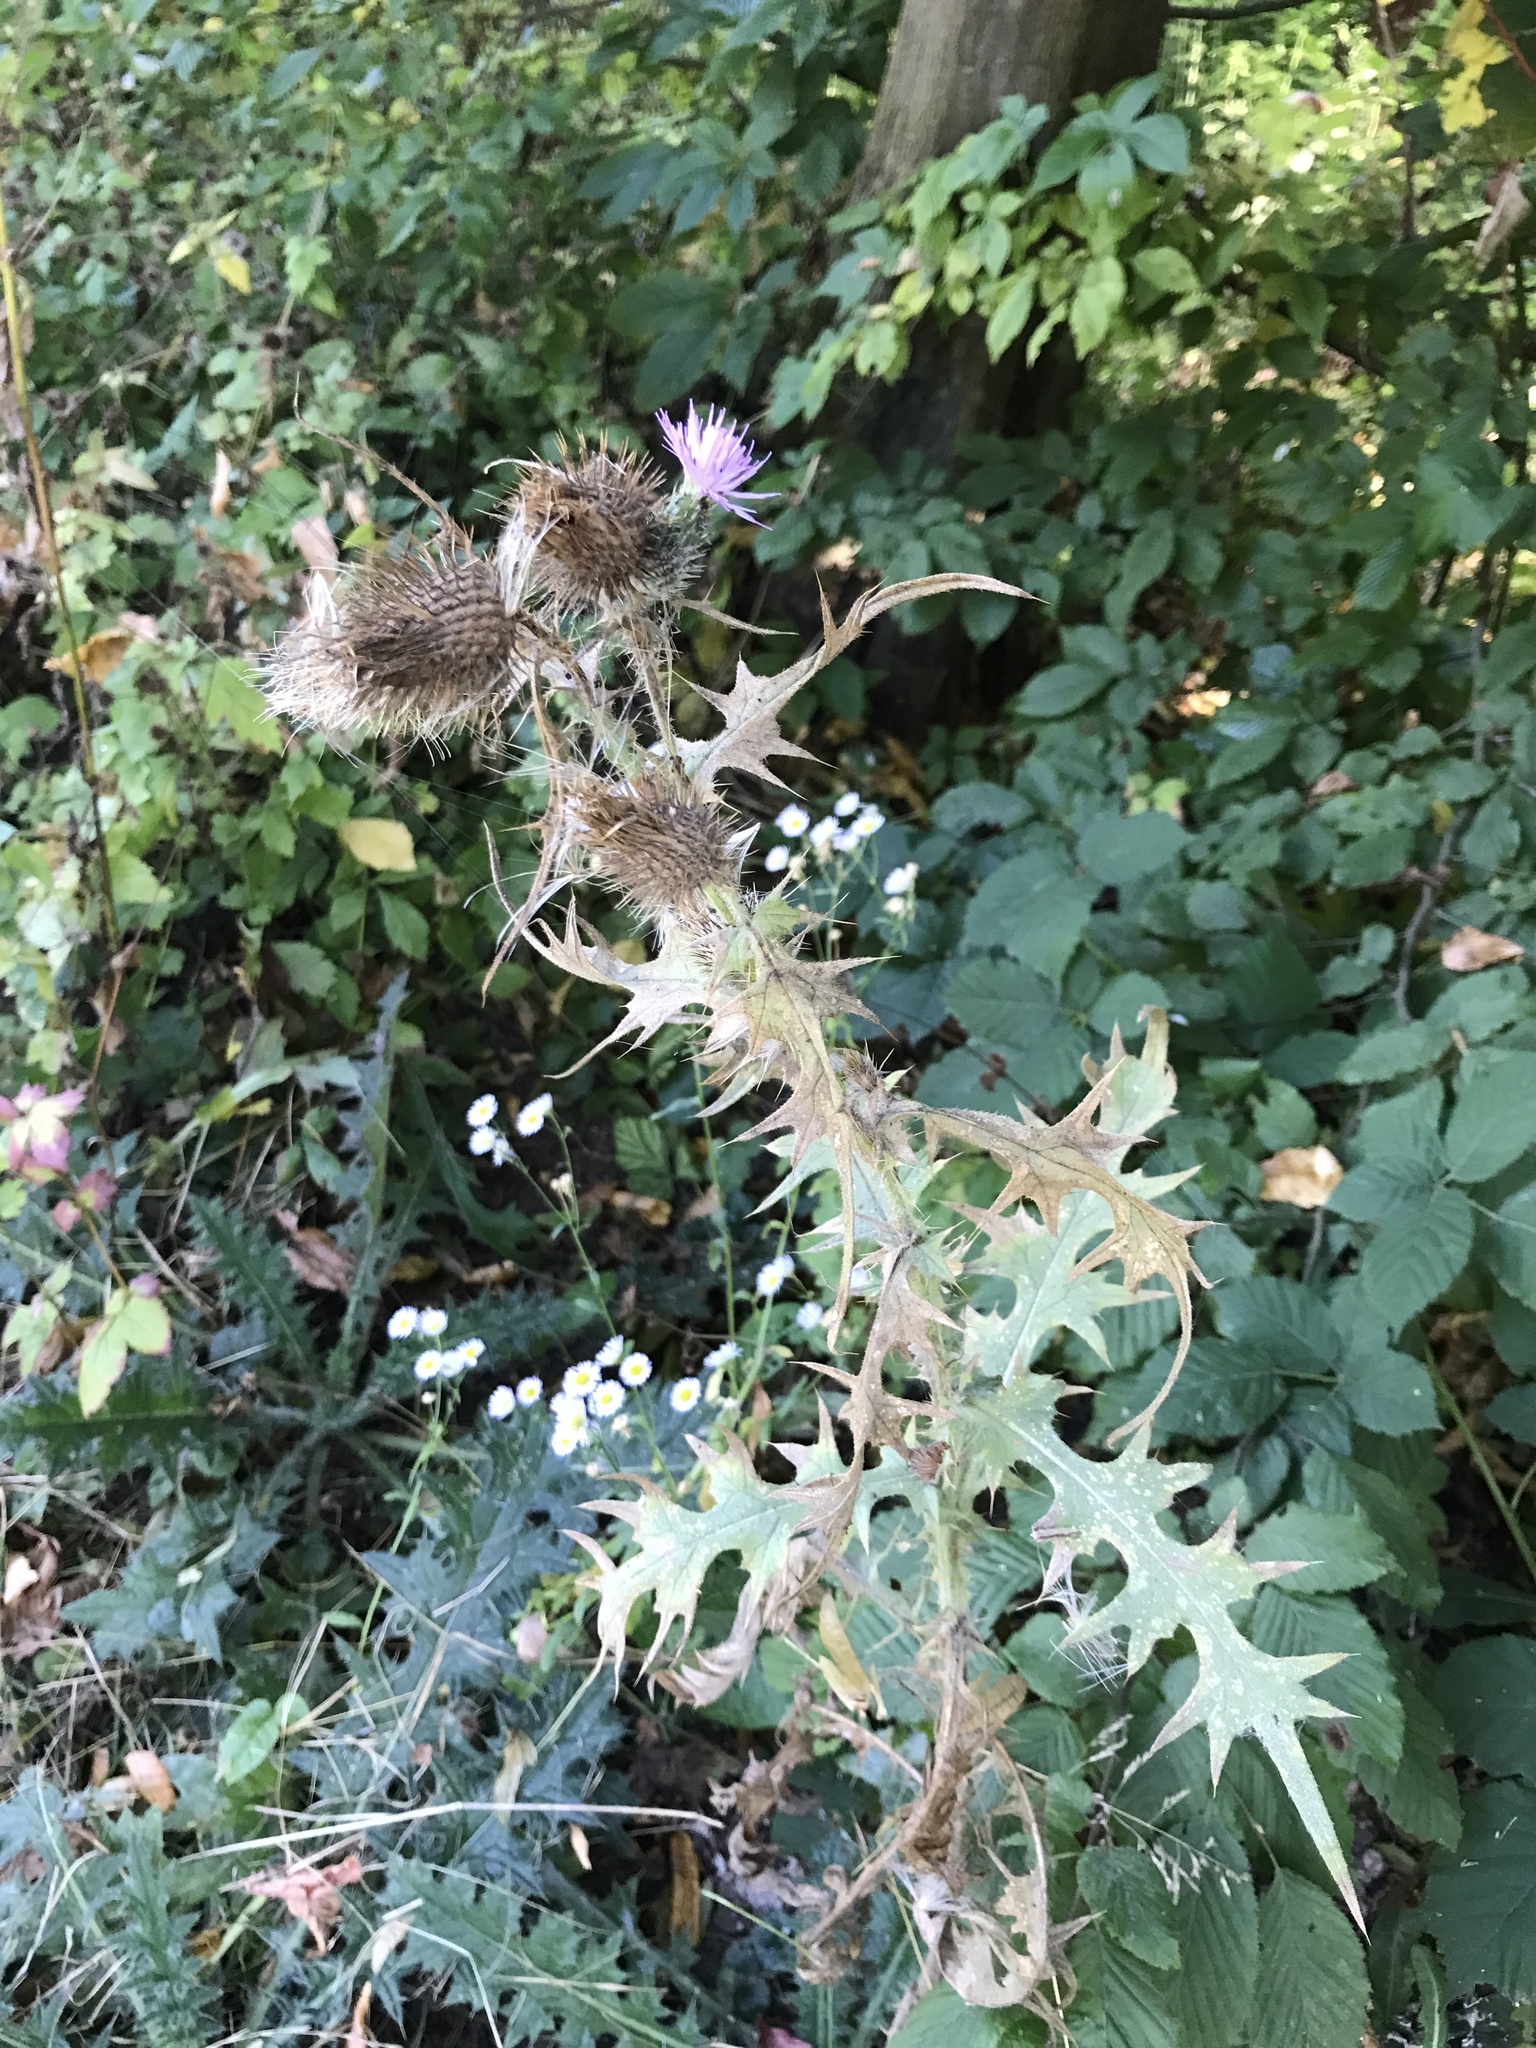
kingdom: Plantae
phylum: Tracheophyta
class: Magnoliopsida
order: Asterales
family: Asteraceae
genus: Cirsium
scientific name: Cirsium vulgare
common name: Bull thistle
